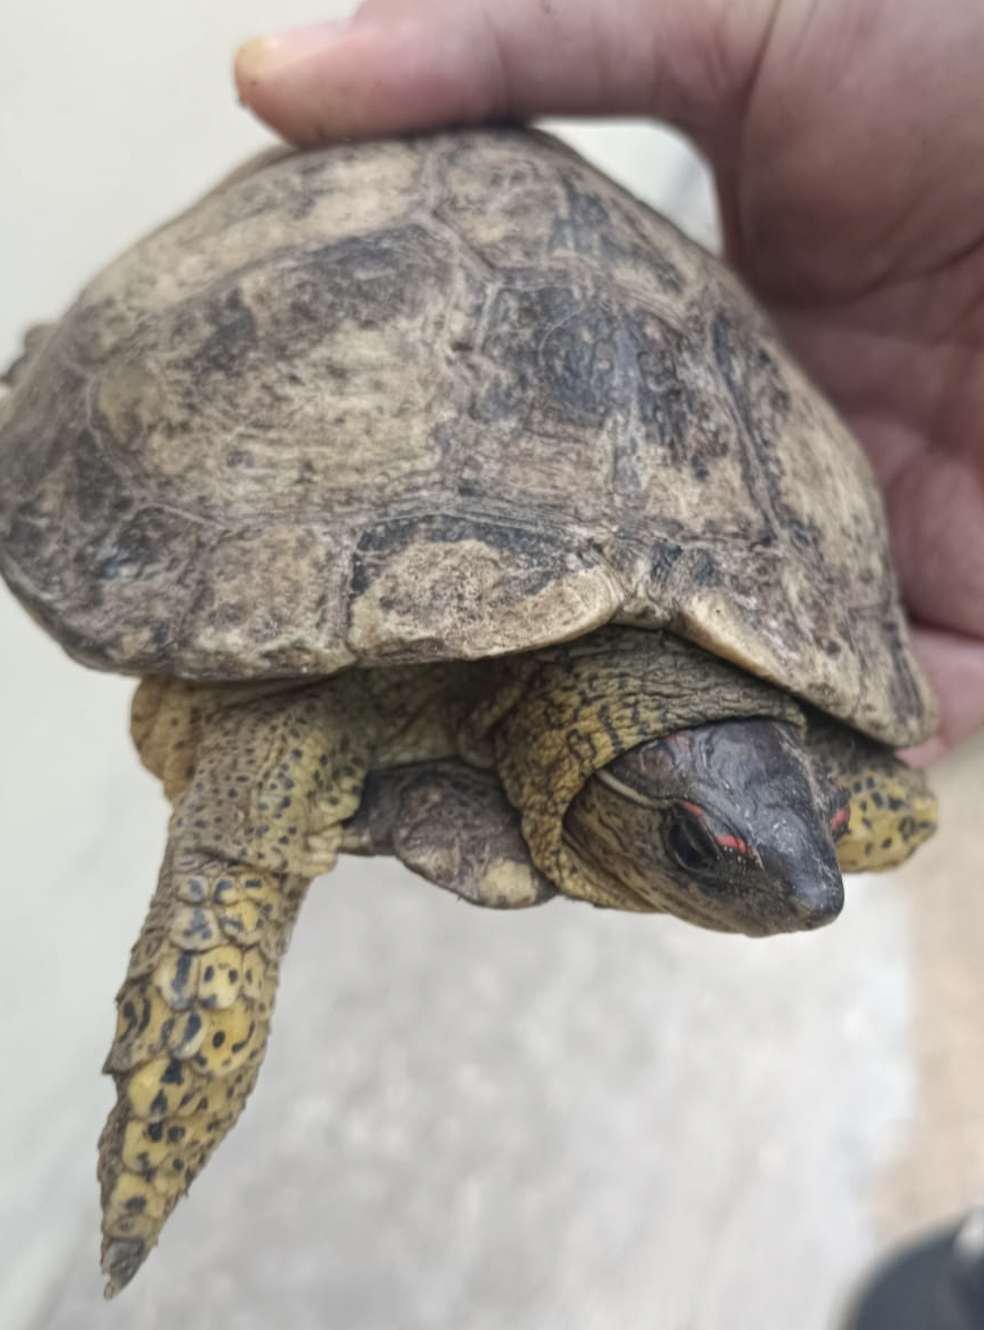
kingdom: Animalia
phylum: Chordata
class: Testudines
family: Geoemydidae
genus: Rhinoclemmys
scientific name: Rhinoclemmys areolata
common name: Furrowed wood turtle
